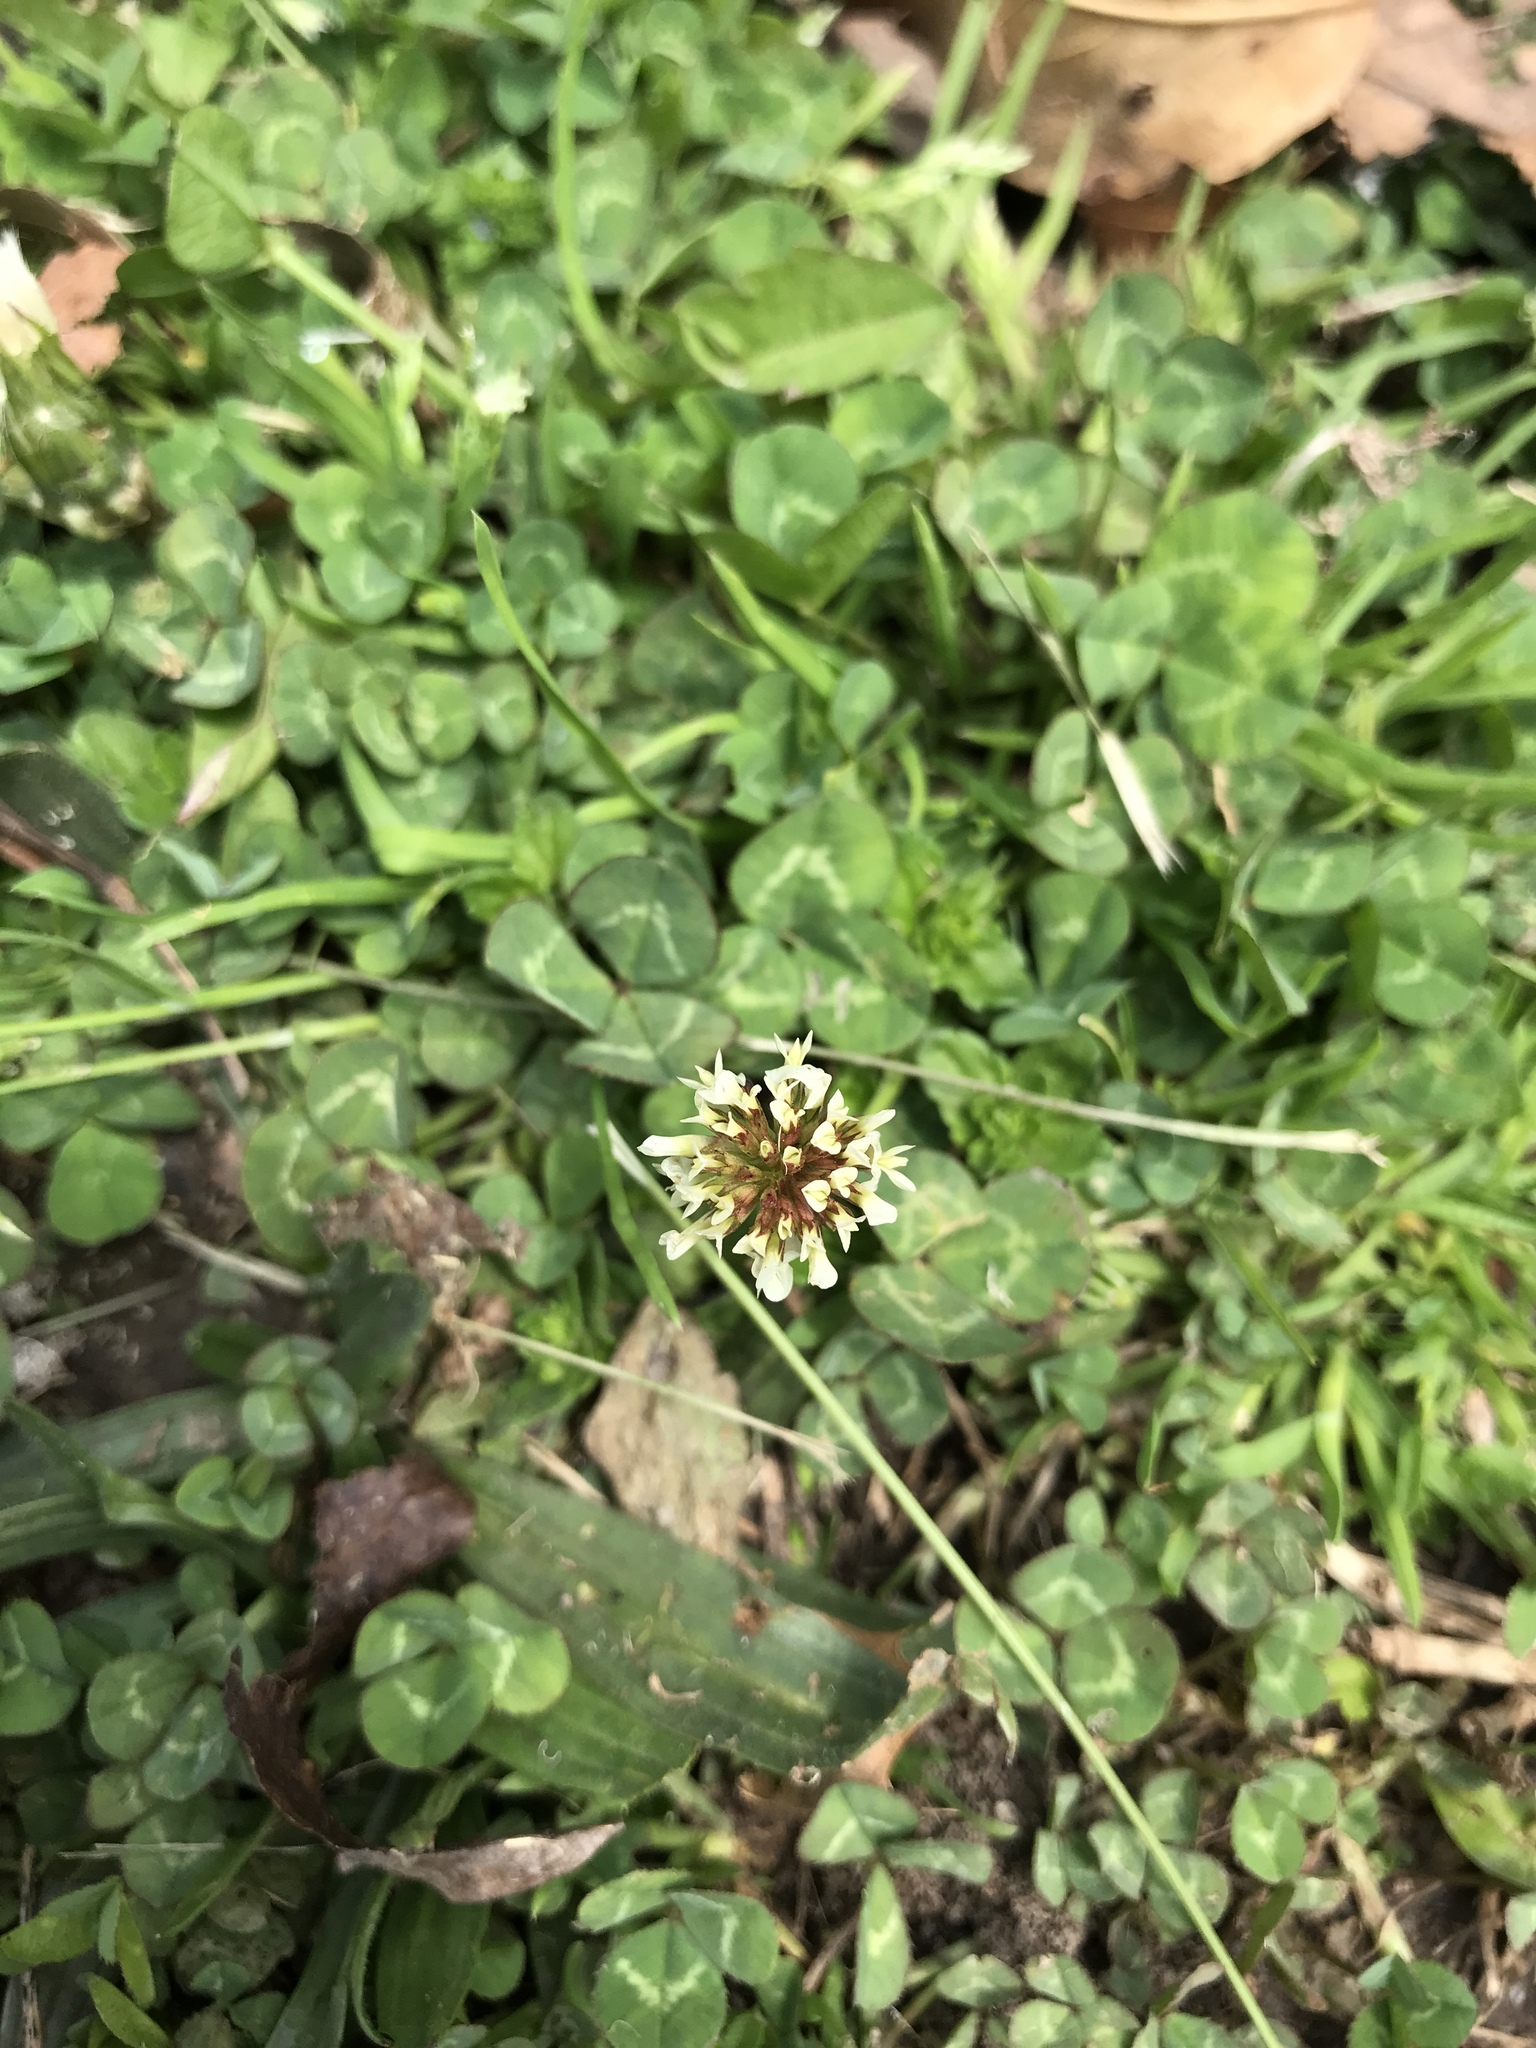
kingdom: Plantae
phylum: Tracheophyta
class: Magnoliopsida
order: Fabales
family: Fabaceae
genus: Trifolium
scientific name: Trifolium repens
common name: White clover
